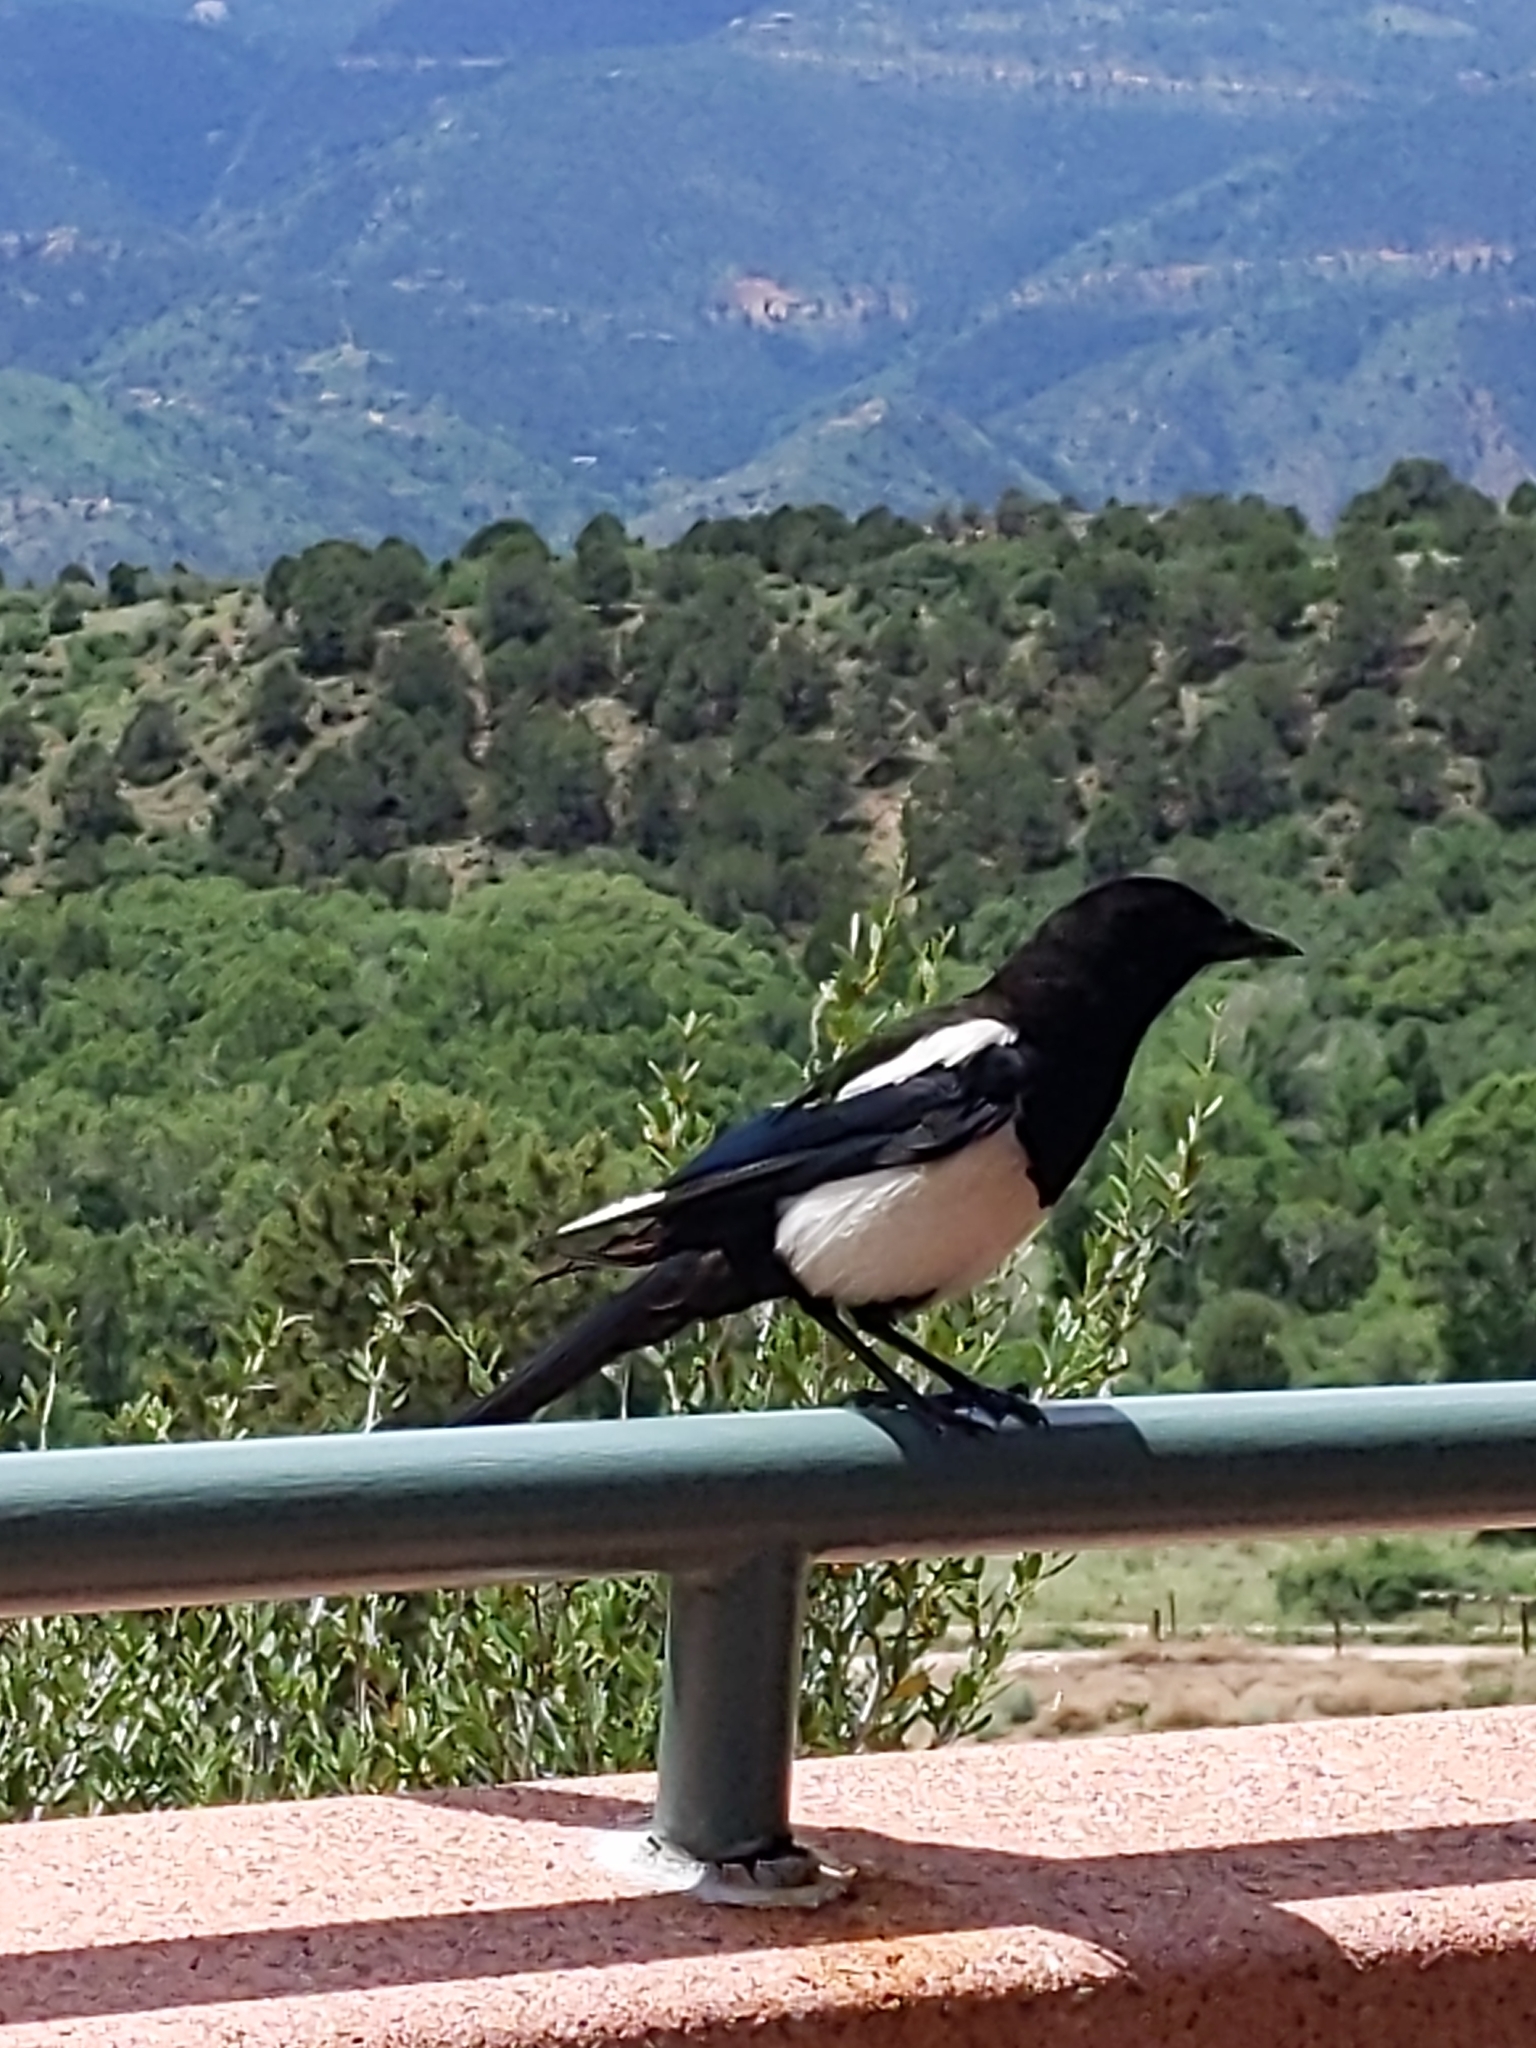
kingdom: Animalia
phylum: Chordata
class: Aves
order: Passeriformes
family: Corvidae
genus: Pica
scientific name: Pica hudsonia
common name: Black-billed magpie
